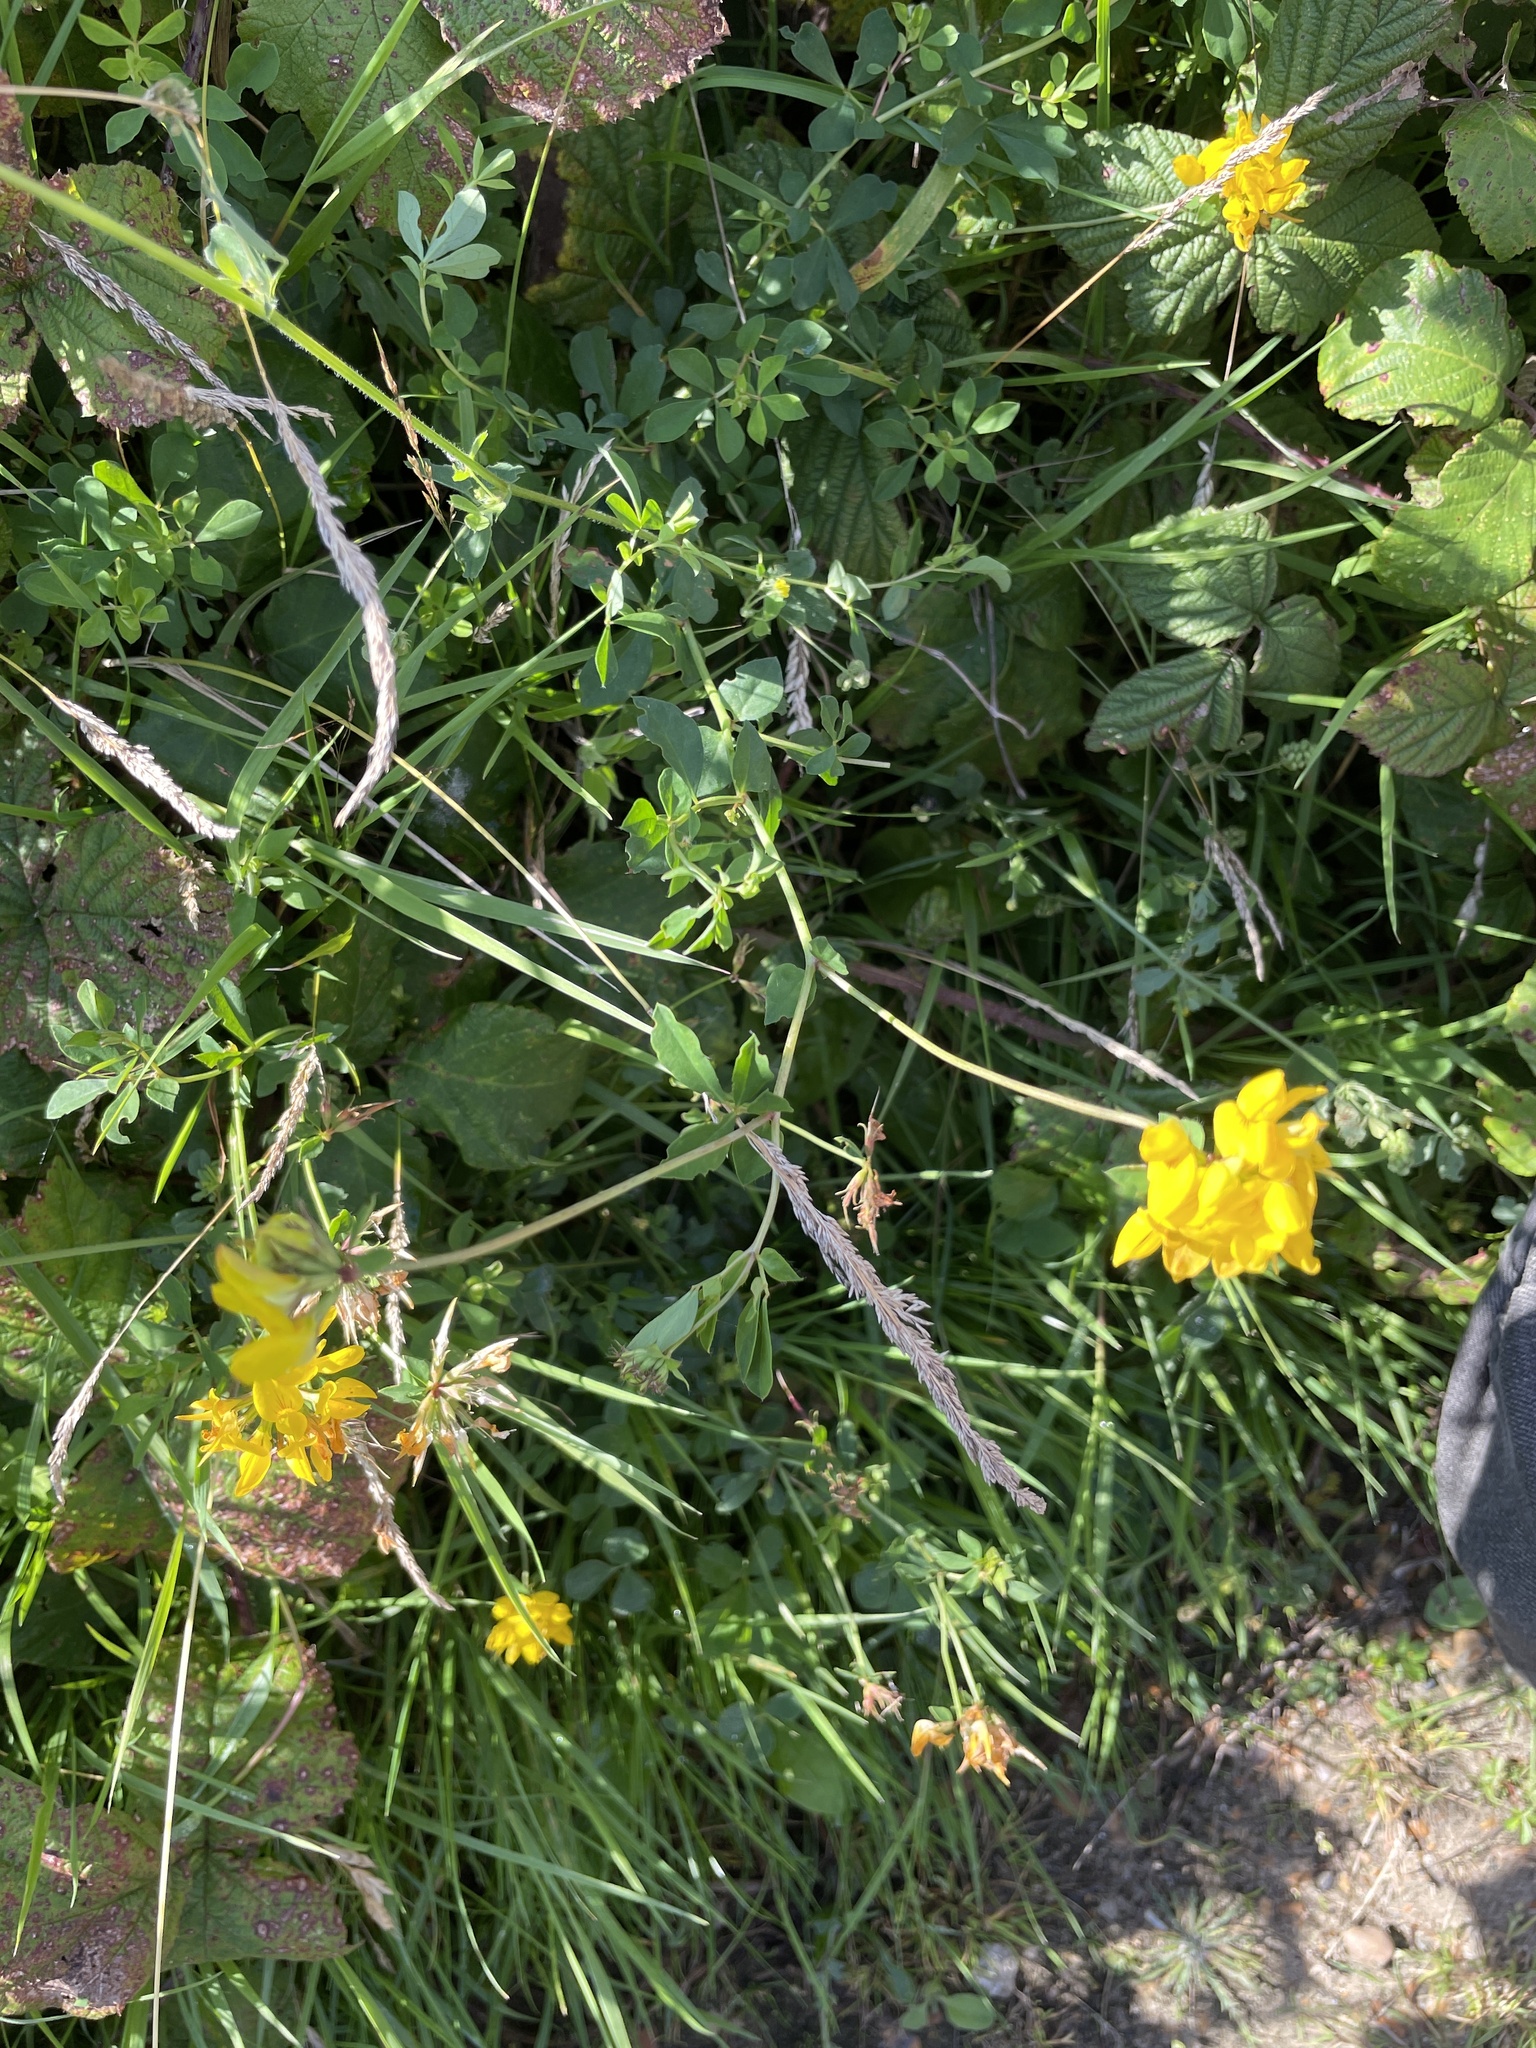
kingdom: Plantae
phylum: Tracheophyta
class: Magnoliopsida
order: Fabales
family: Fabaceae
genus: Lotus
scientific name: Lotus pedunculatus
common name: Greater birdsfoot-trefoil
